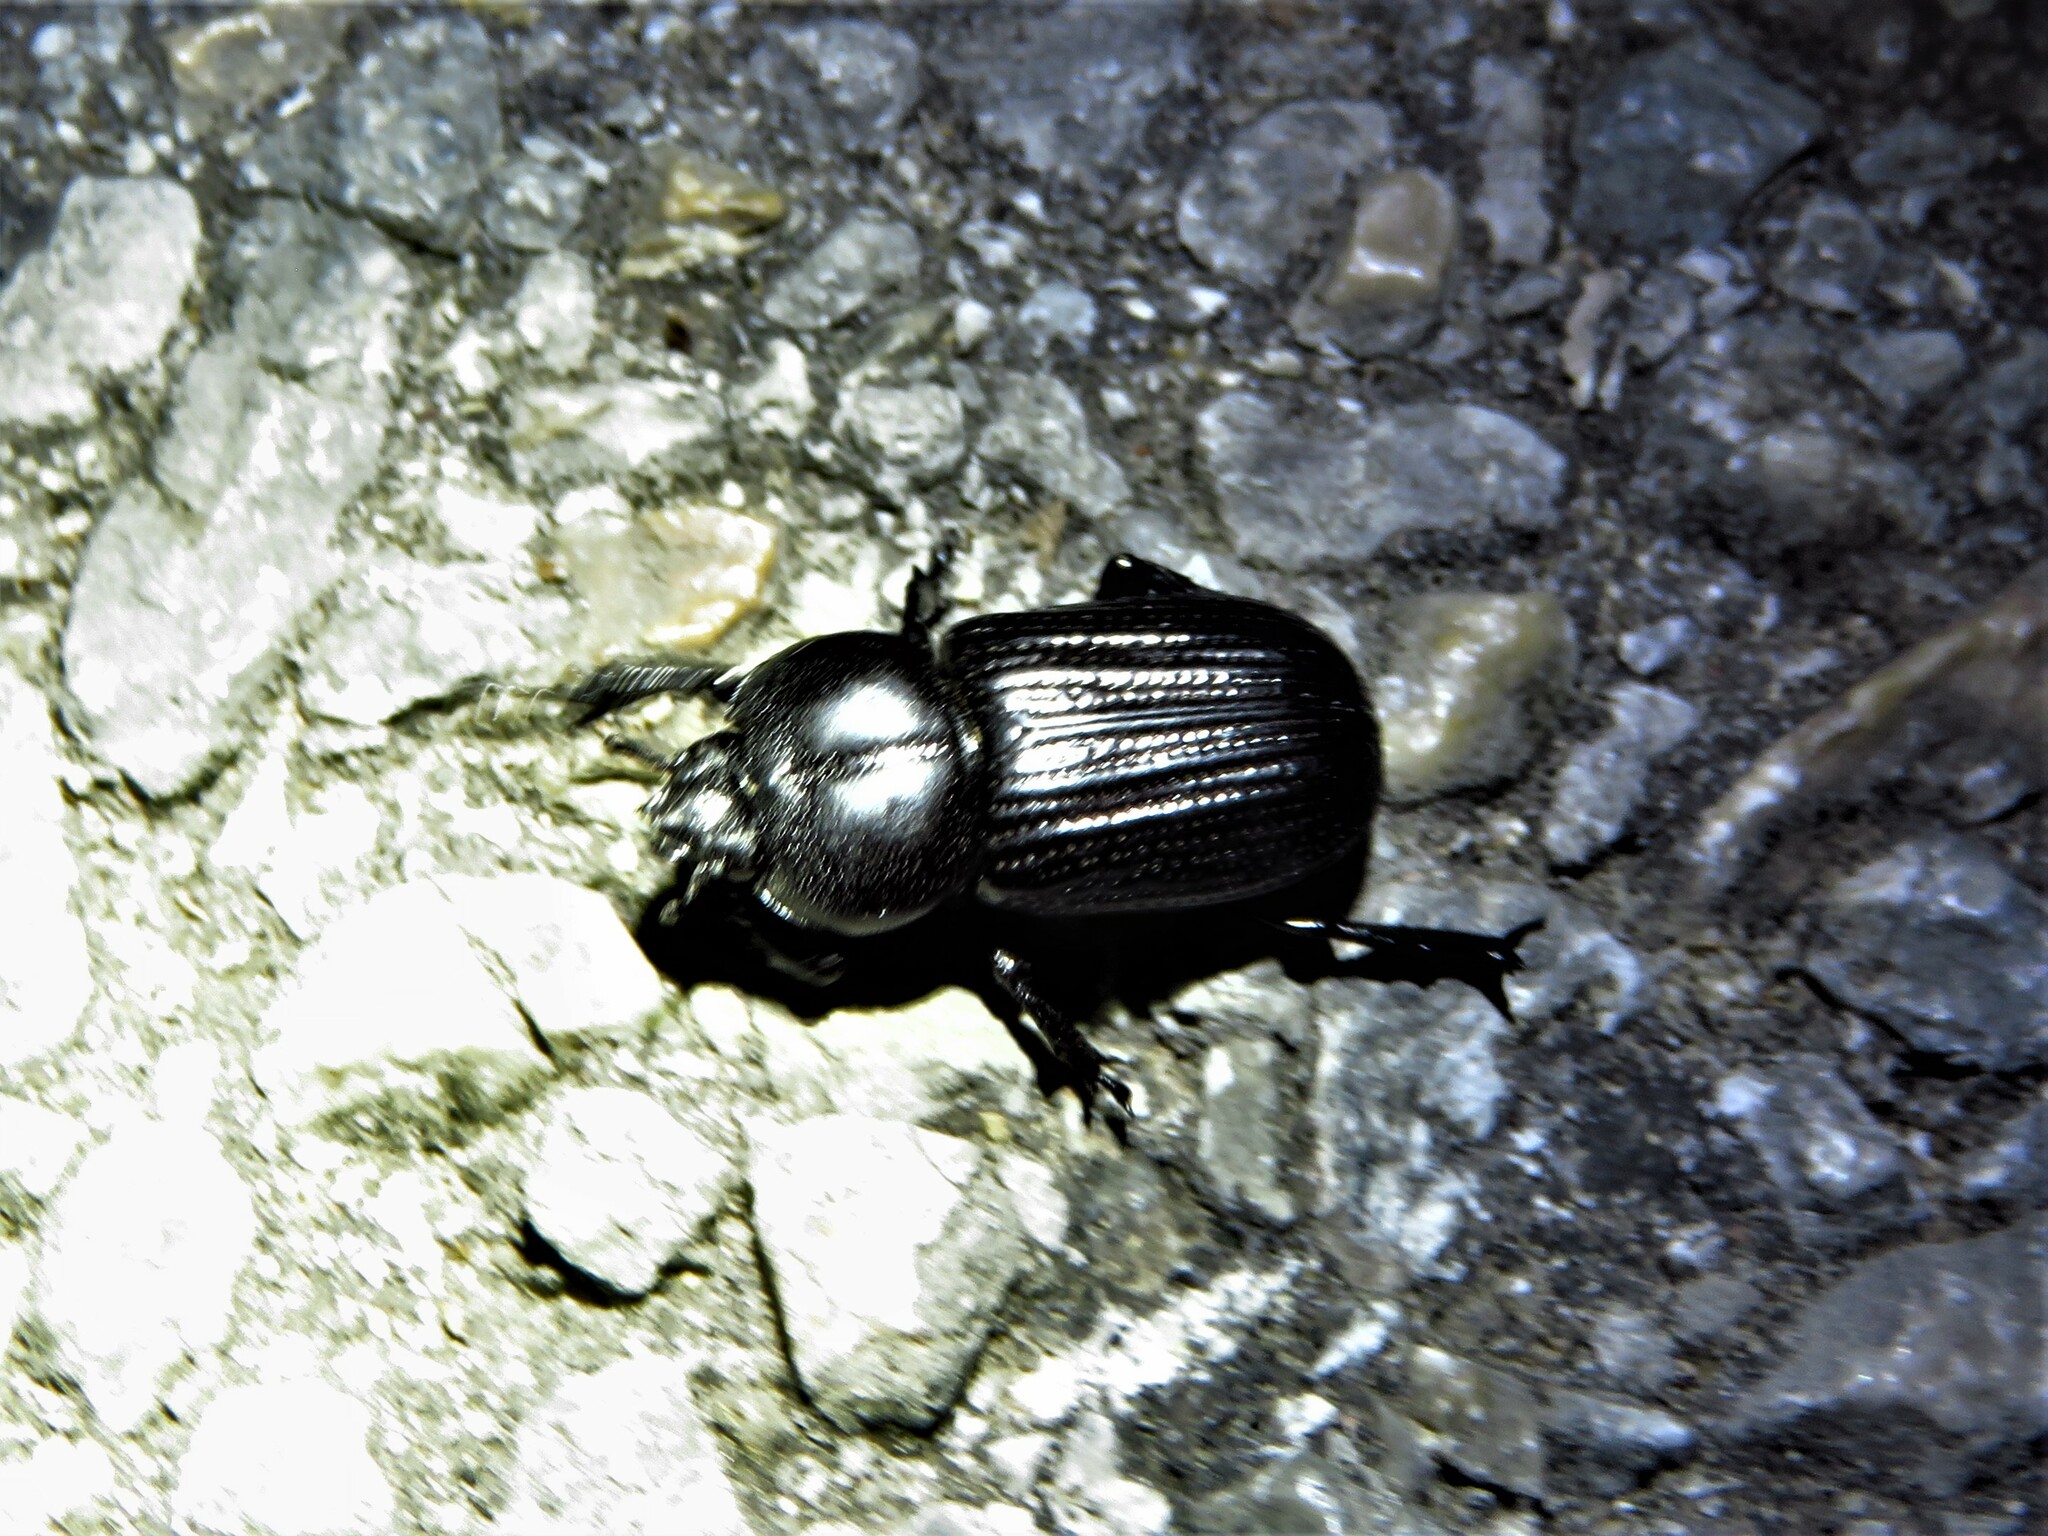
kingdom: Animalia
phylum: Arthropoda
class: Insecta
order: Coleoptera
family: Scarabaeidae
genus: Phileurus
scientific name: Phileurus valgus
